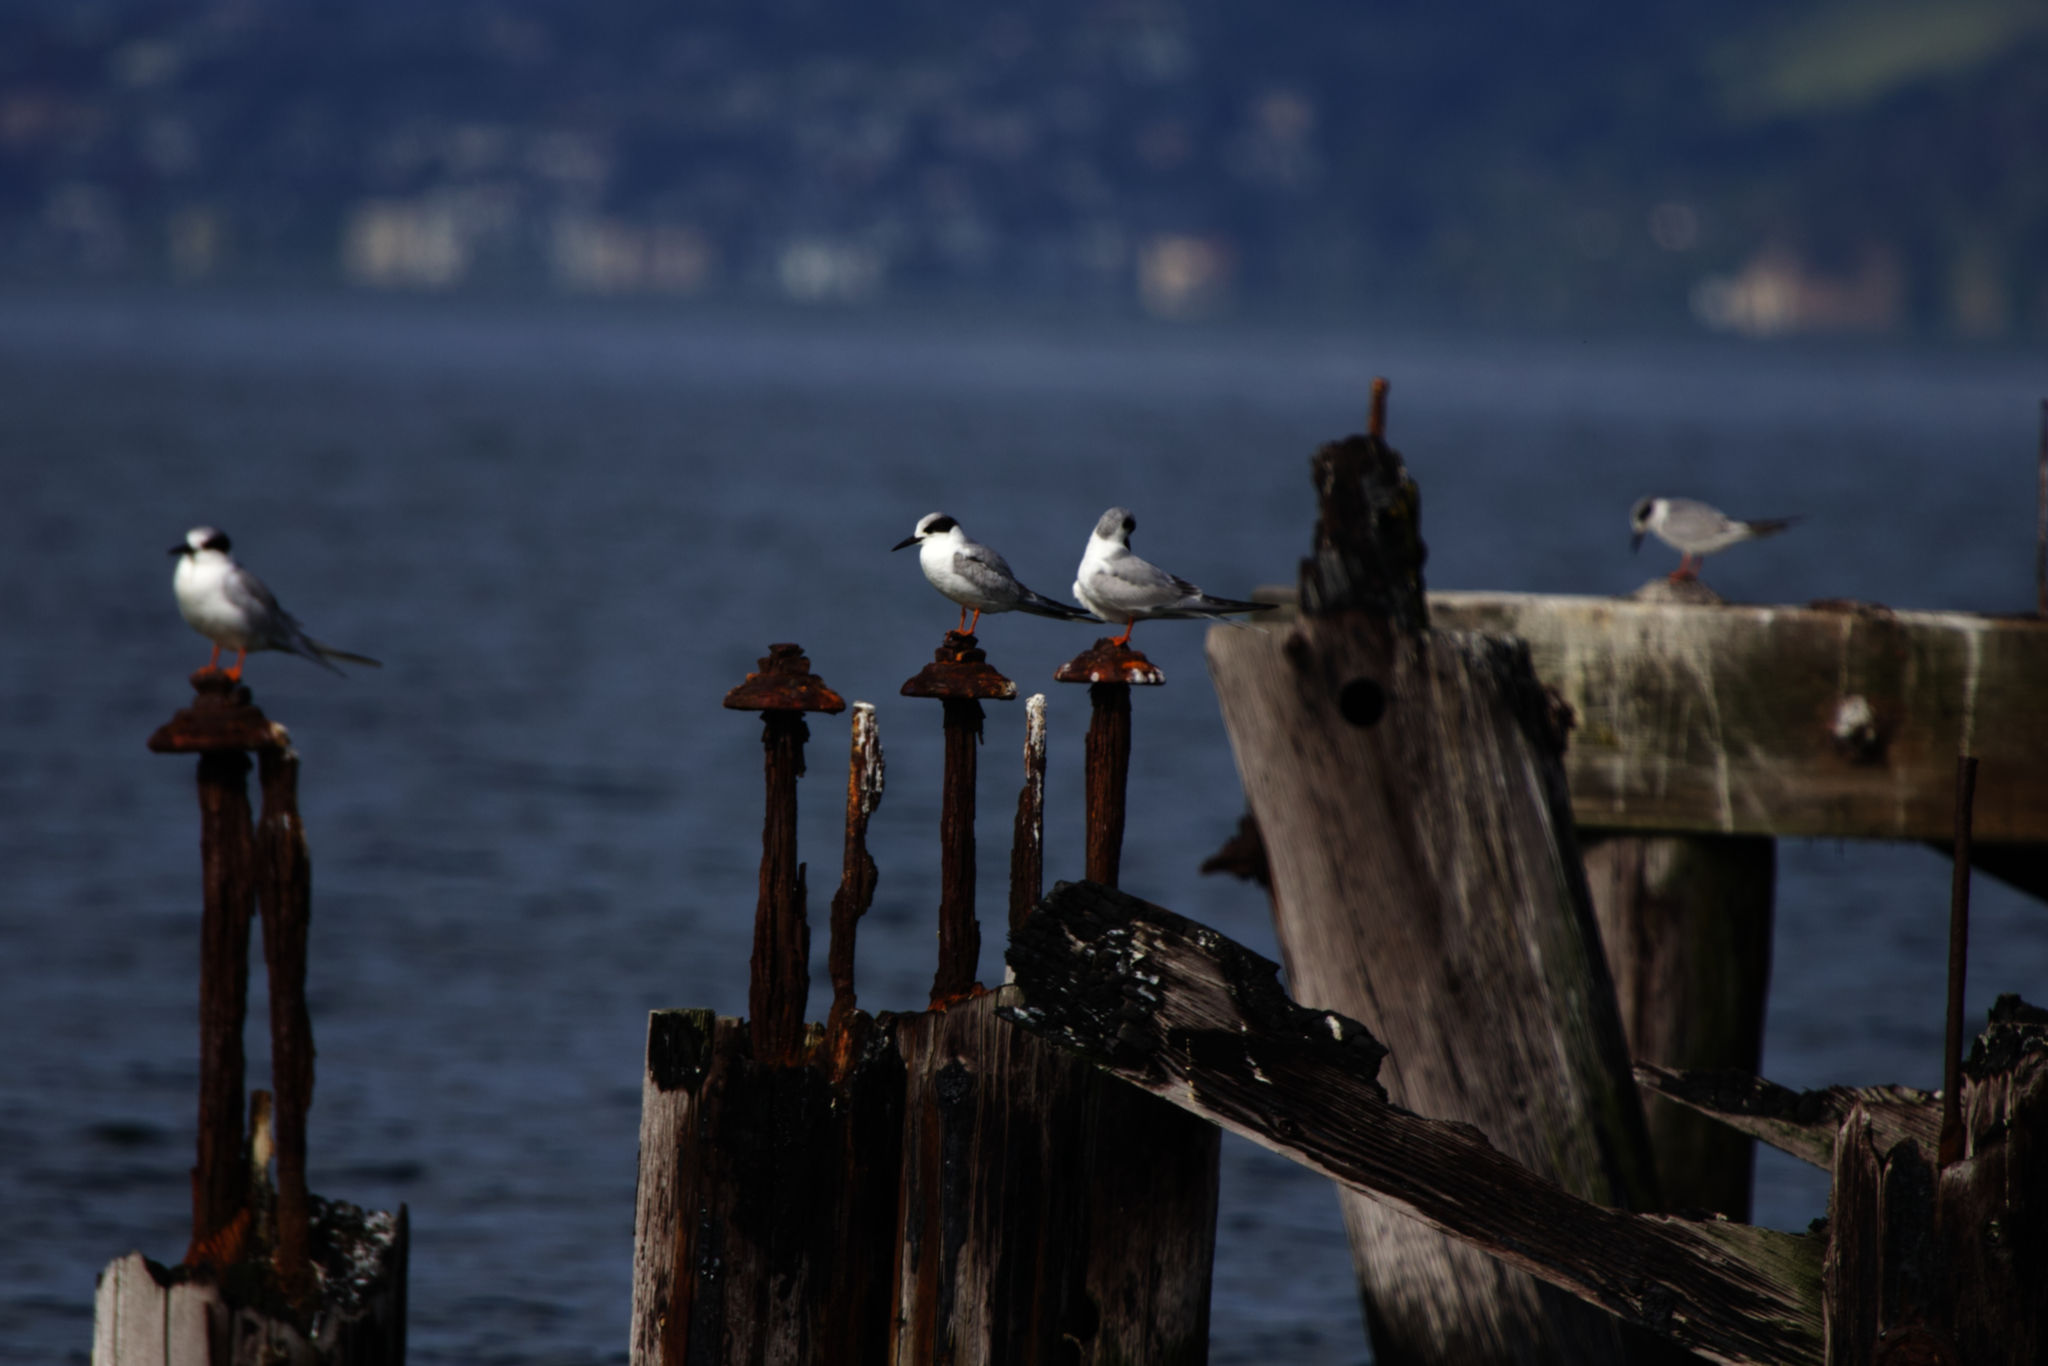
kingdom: Animalia
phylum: Chordata
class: Aves
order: Charadriiformes
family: Laridae
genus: Sterna
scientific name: Sterna forsteri
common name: Forster's tern
